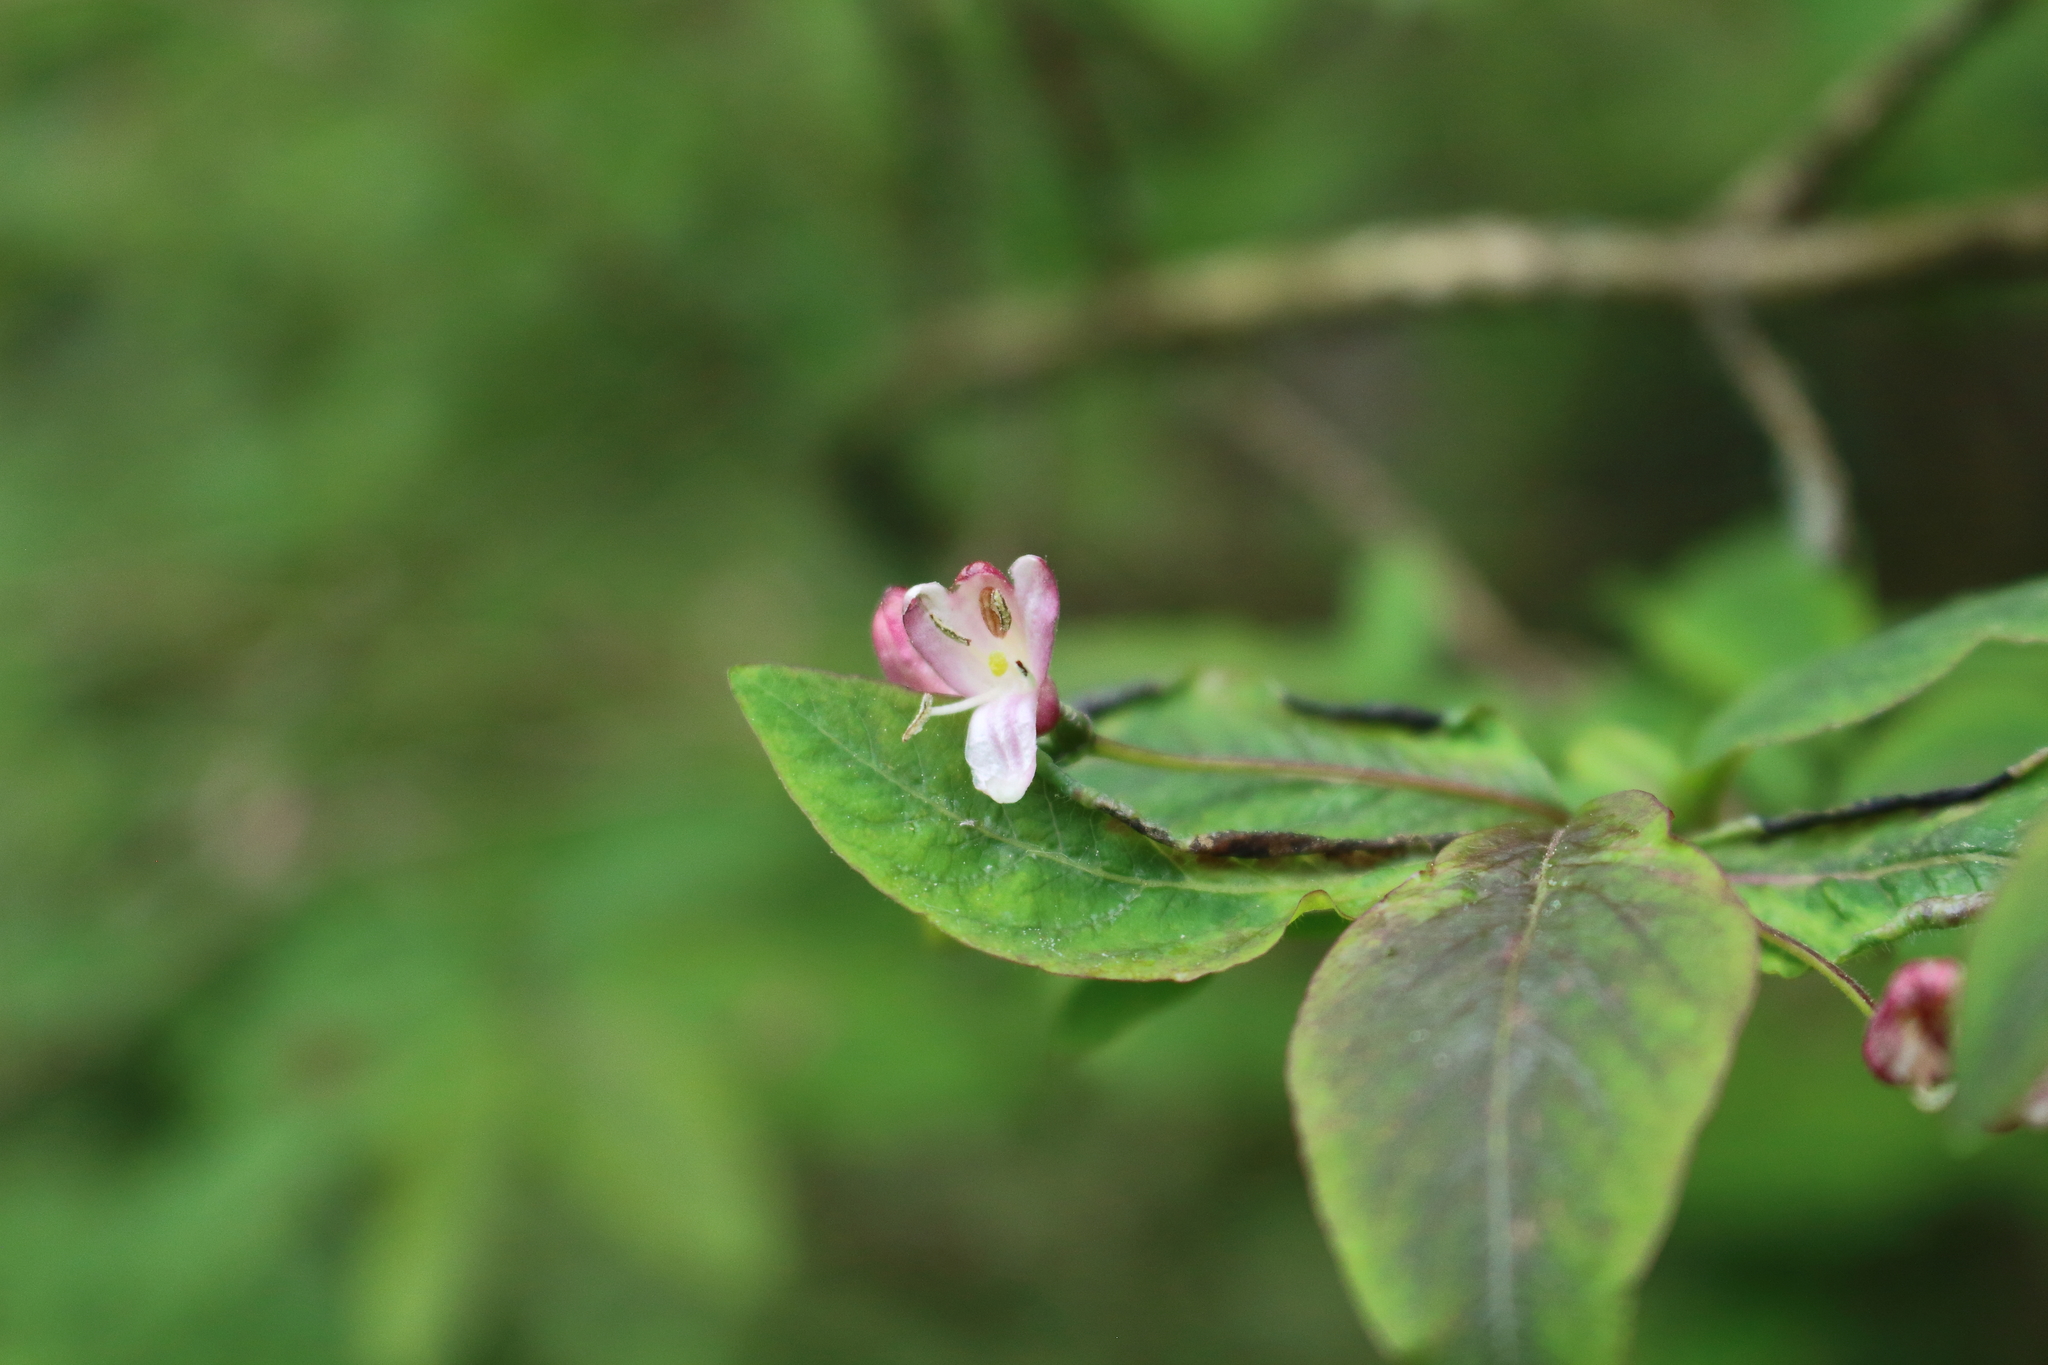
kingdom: Plantae
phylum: Tracheophyta
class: Magnoliopsida
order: Dipsacales
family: Caprifoliaceae
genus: Lonicera
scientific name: Lonicera nigra
